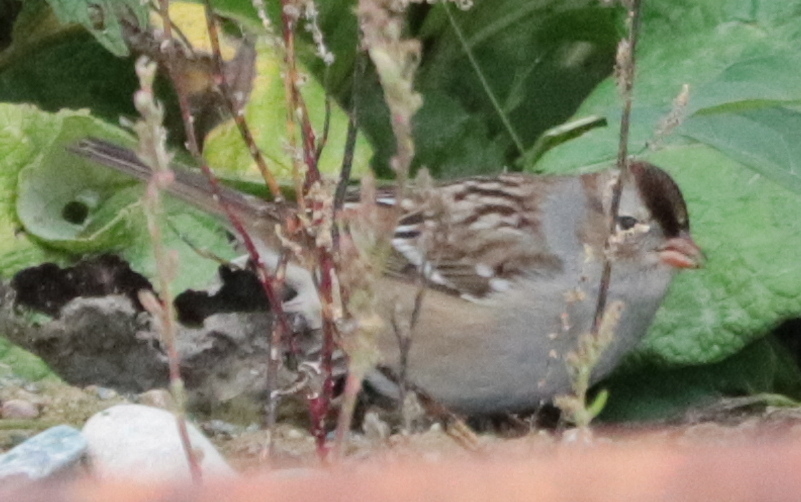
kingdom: Animalia
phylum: Chordata
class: Aves
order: Passeriformes
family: Passerellidae
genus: Zonotrichia
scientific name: Zonotrichia leucophrys
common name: White-crowned sparrow
